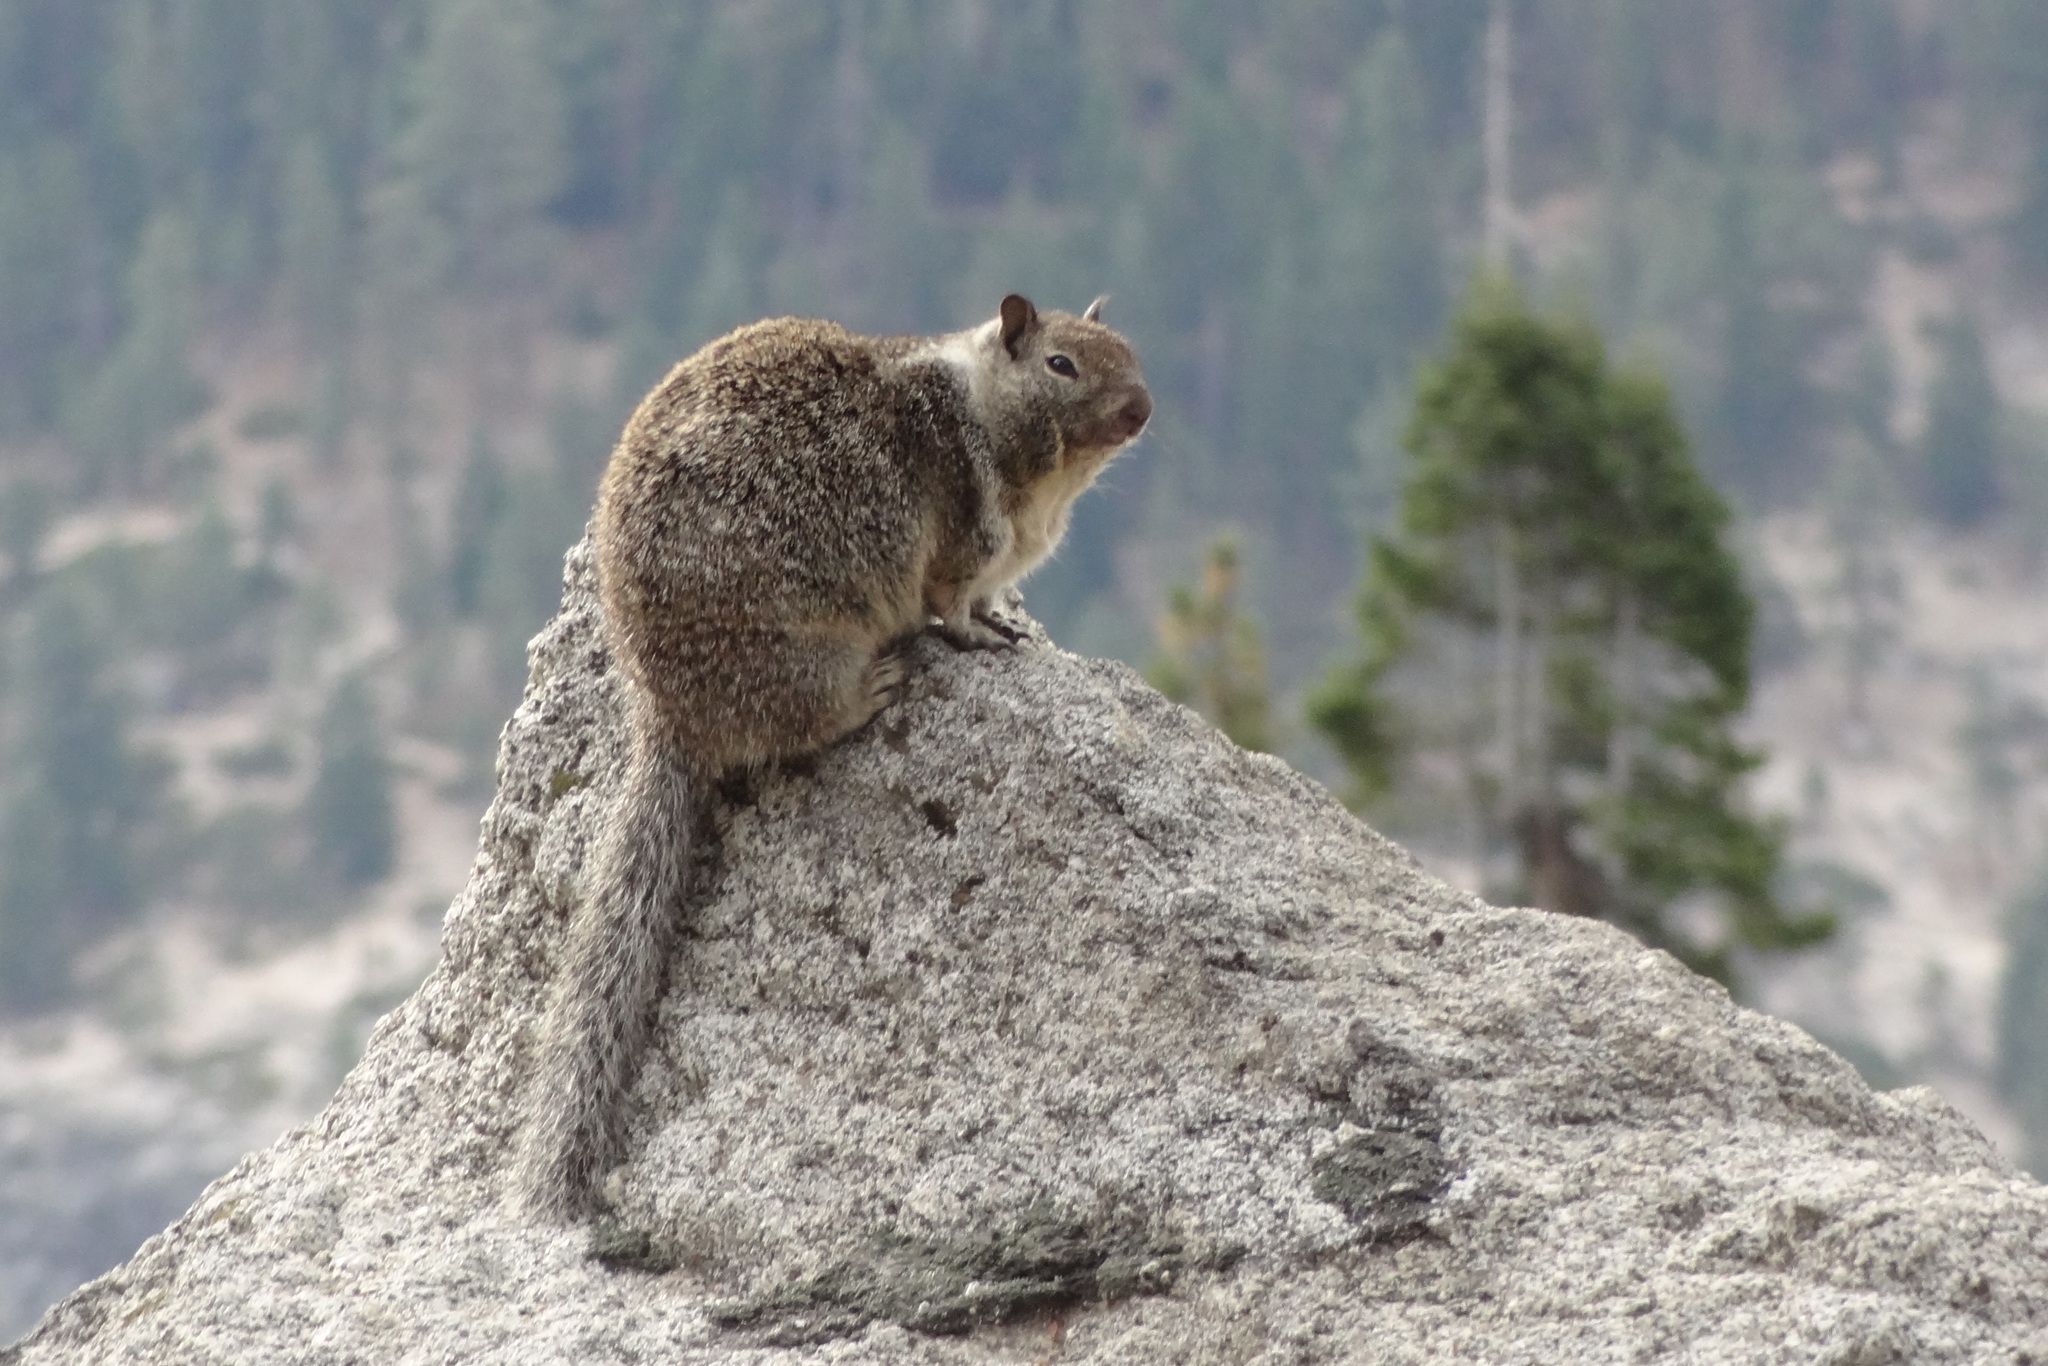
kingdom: Animalia
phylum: Chordata
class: Mammalia
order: Rodentia
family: Sciuridae
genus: Otospermophilus
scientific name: Otospermophilus beecheyi
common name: California ground squirrel
